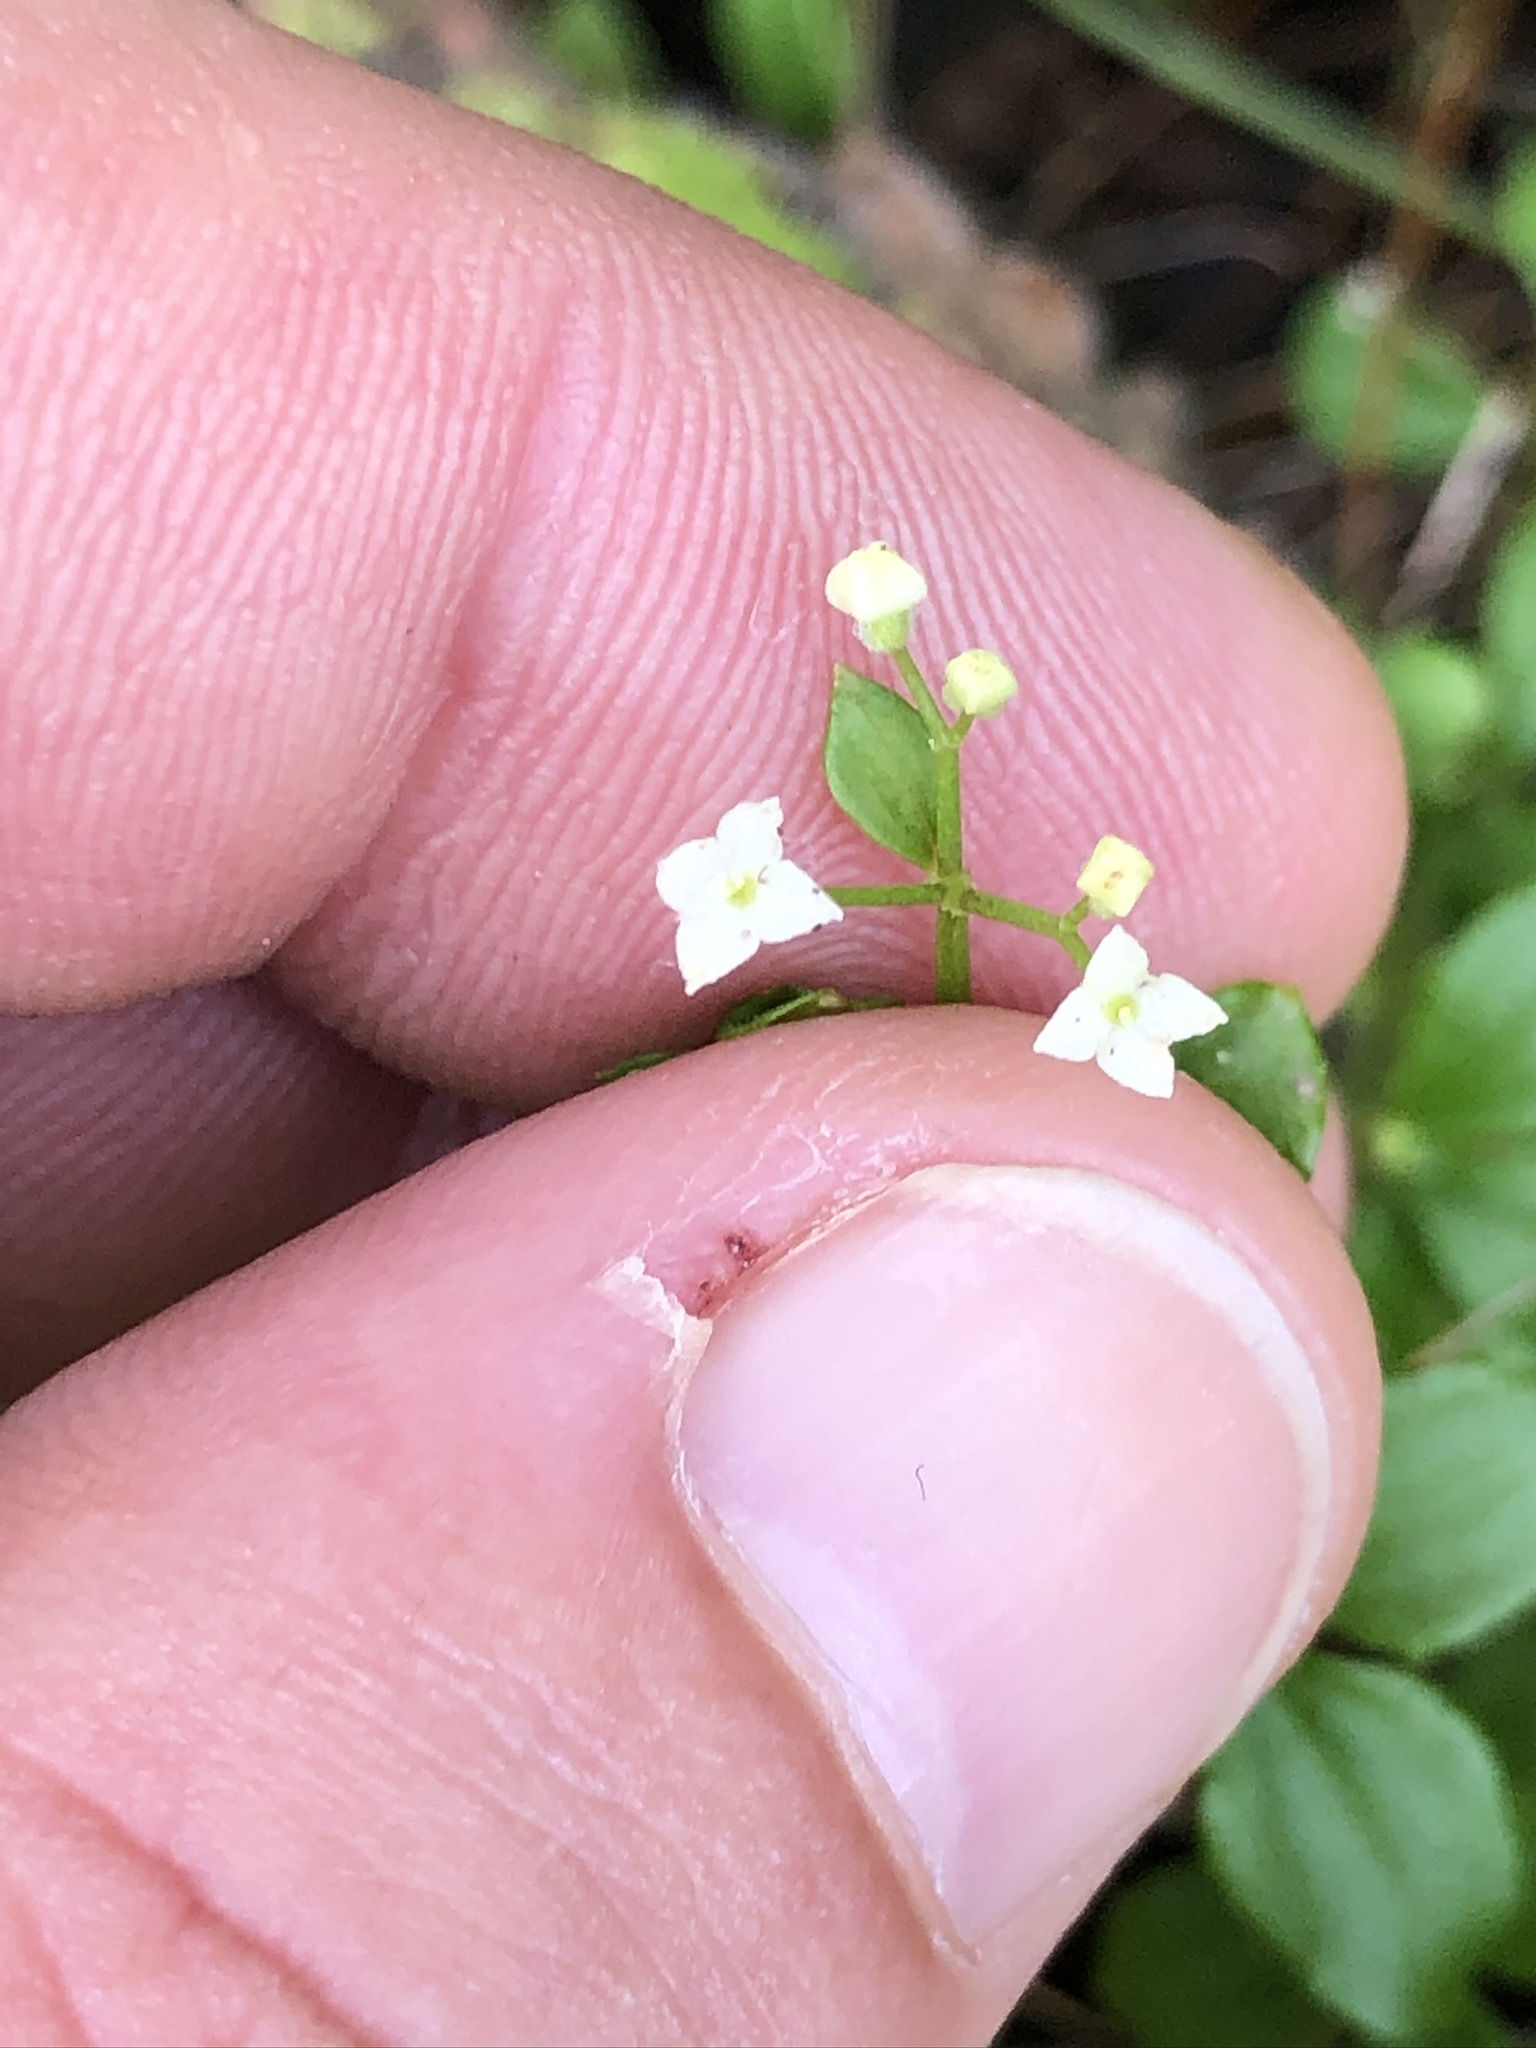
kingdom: Plantae
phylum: Tracheophyta
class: Magnoliopsida
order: Gentianales
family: Rubiaceae
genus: Galium
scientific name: Galium rotundifolium
